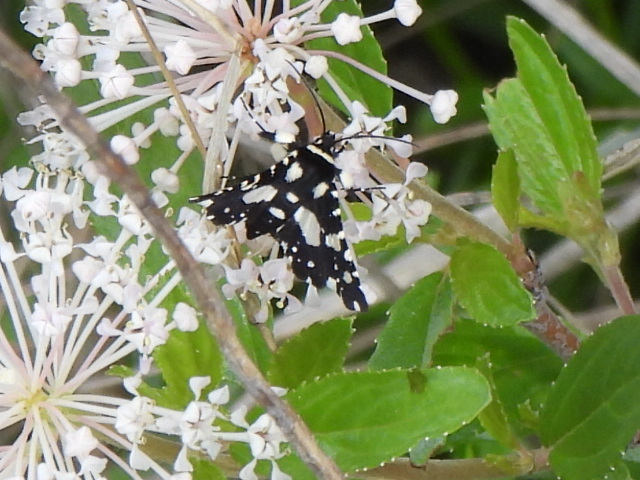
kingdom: Animalia
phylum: Arthropoda
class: Insecta
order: Lepidoptera
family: Thyrididae
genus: Pseudothyris
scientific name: Pseudothyris sepulchralis
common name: Mournful thyris moth
